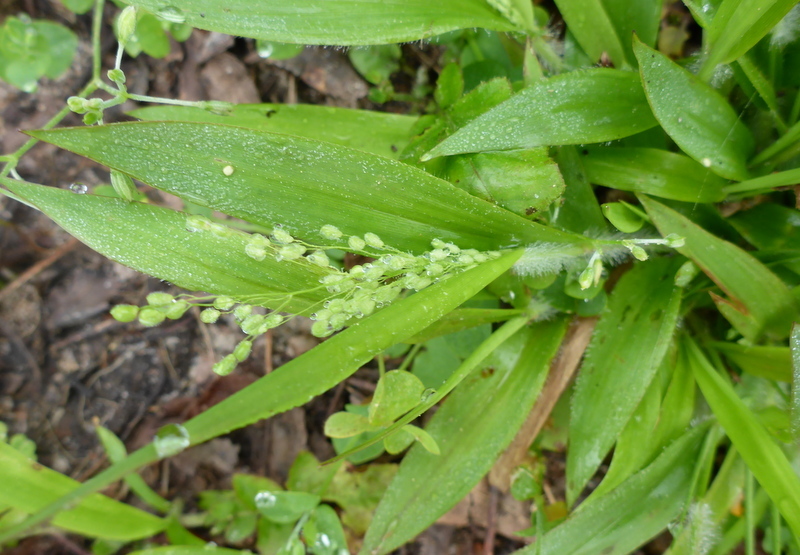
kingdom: Plantae
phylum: Tracheophyta
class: Liliopsida
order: Poales
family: Poaceae
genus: Dichanthelium
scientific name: Dichanthelium laxiflorum
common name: Soft-tuft panic grass
